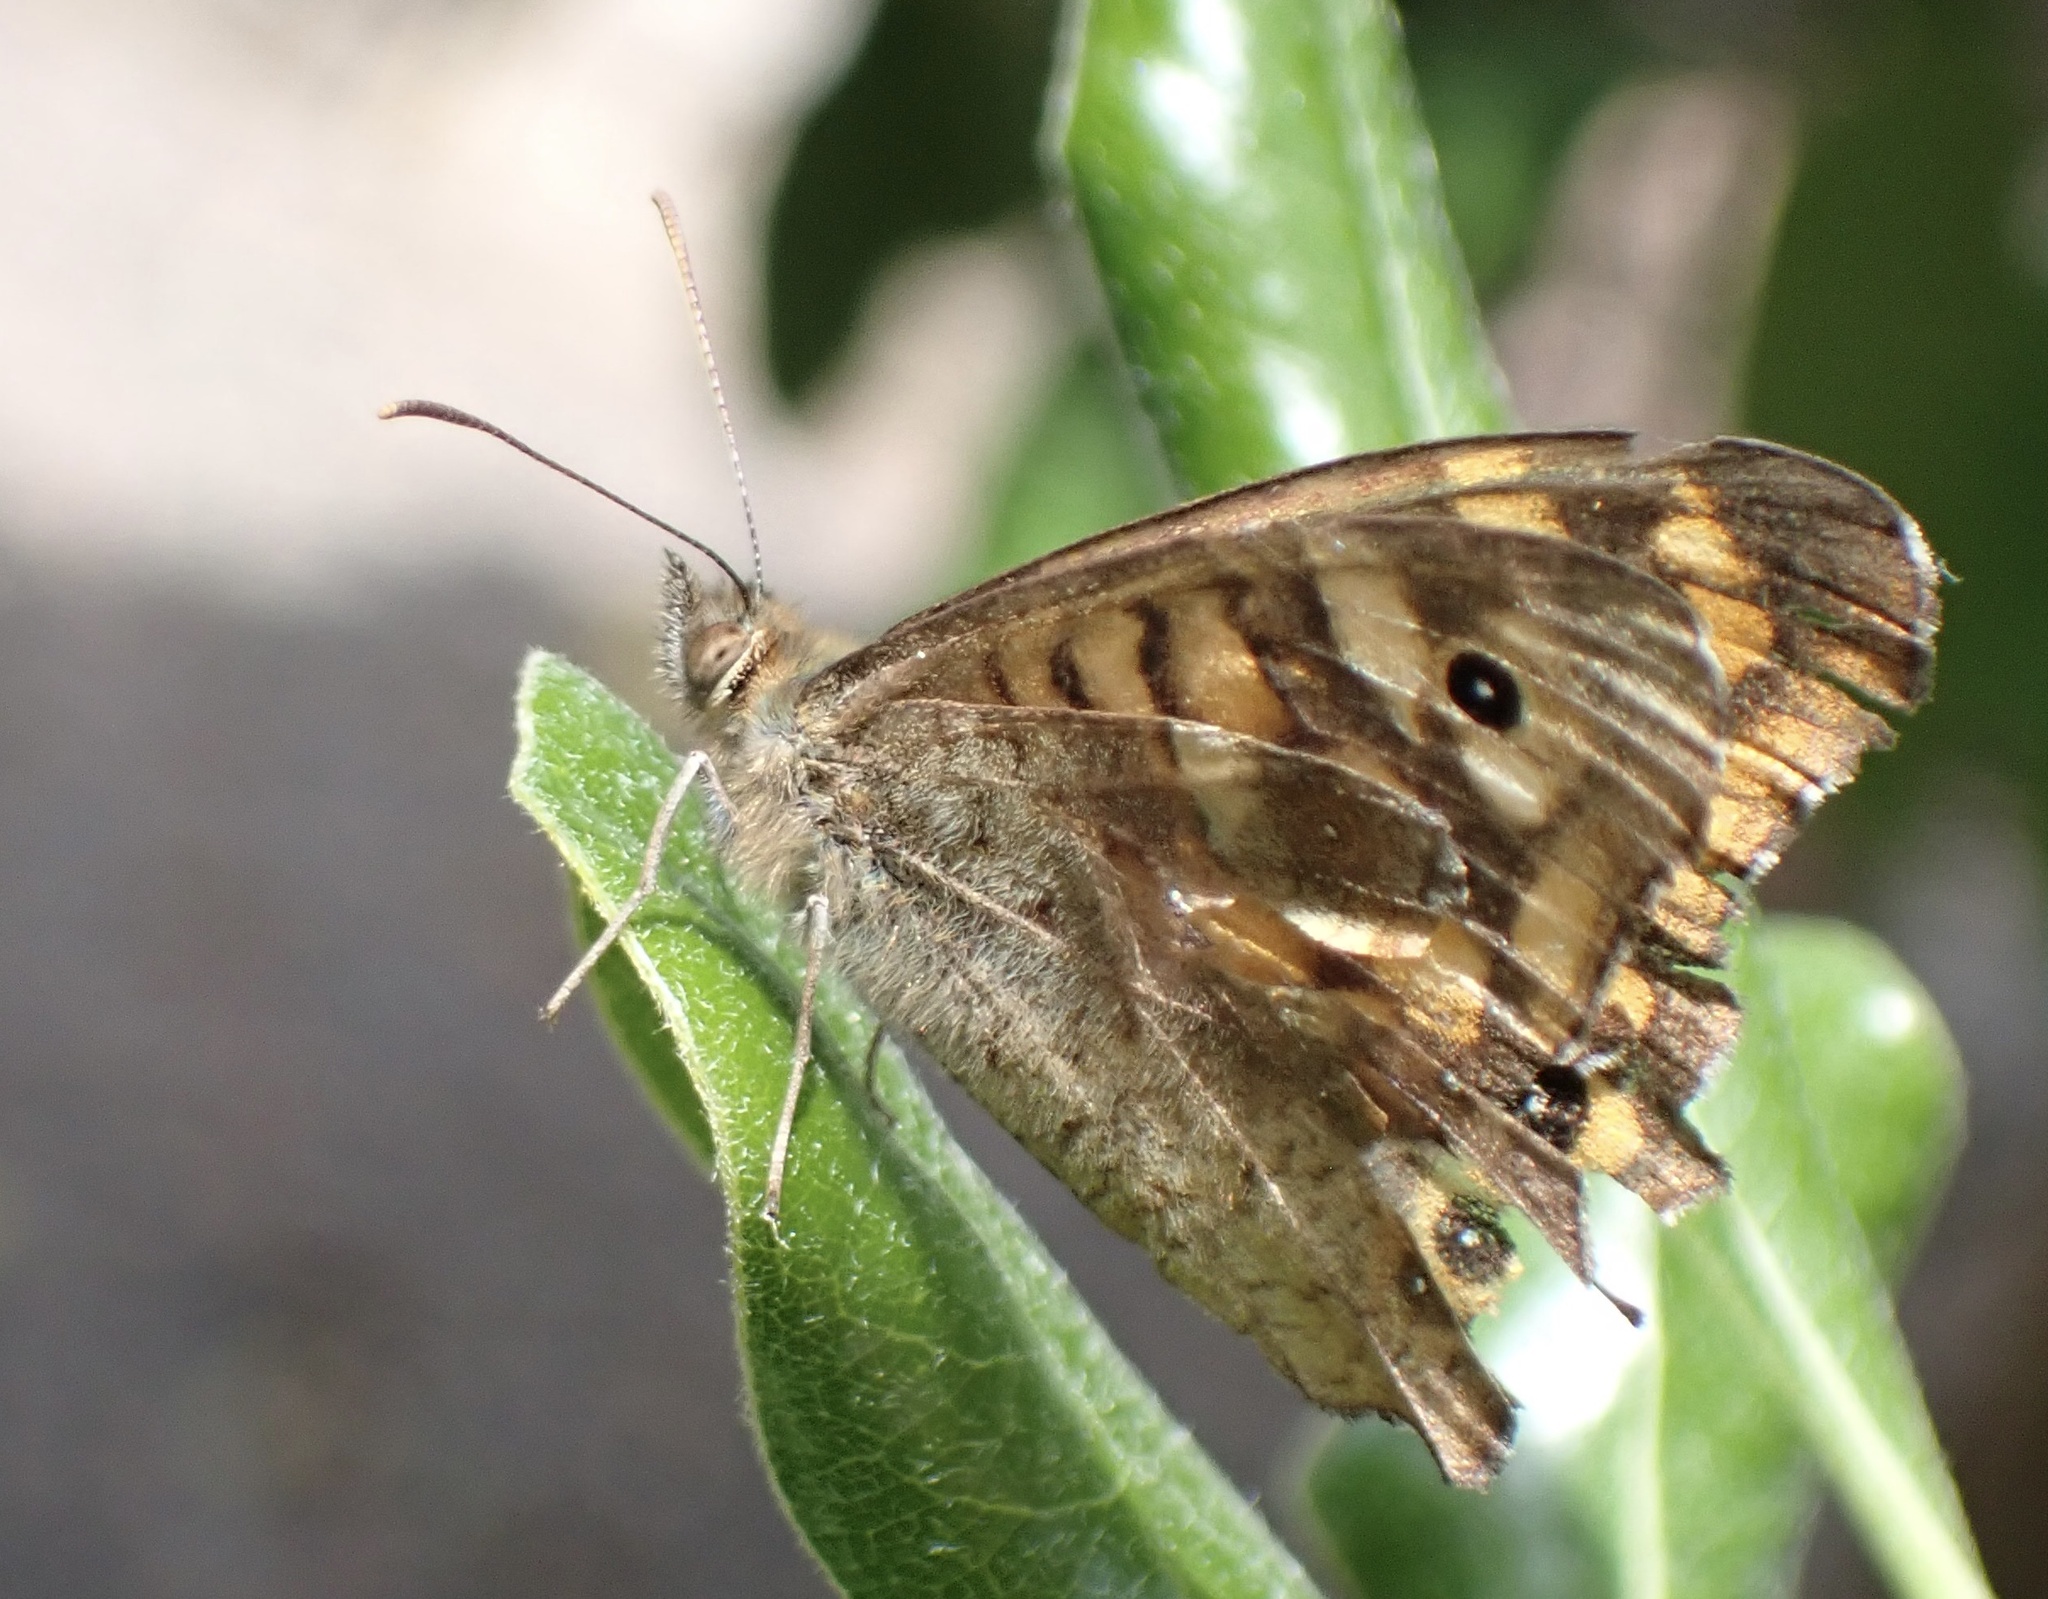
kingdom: Animalia
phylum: Arthropoda
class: Insecta
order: Lepidoptera
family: Nymphalidae
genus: Pararge
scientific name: Pararge aegeria
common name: Speckled wood
